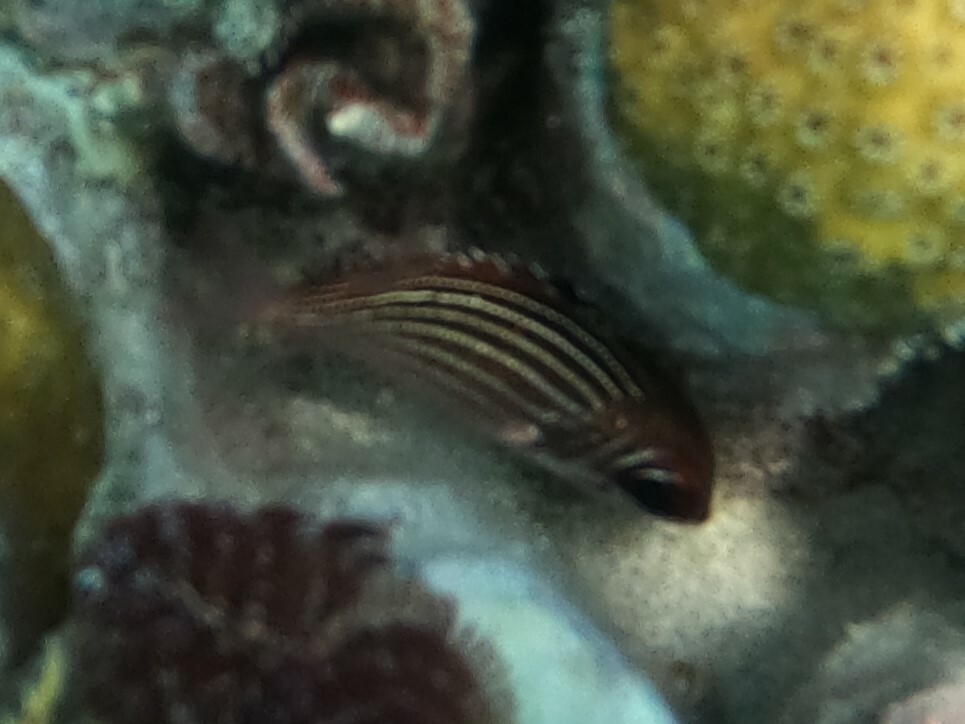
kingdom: Animalia
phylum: Chordata
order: Beryciformes
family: Holocentridae
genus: Neoniphon
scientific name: Neoniphon vexillarium
